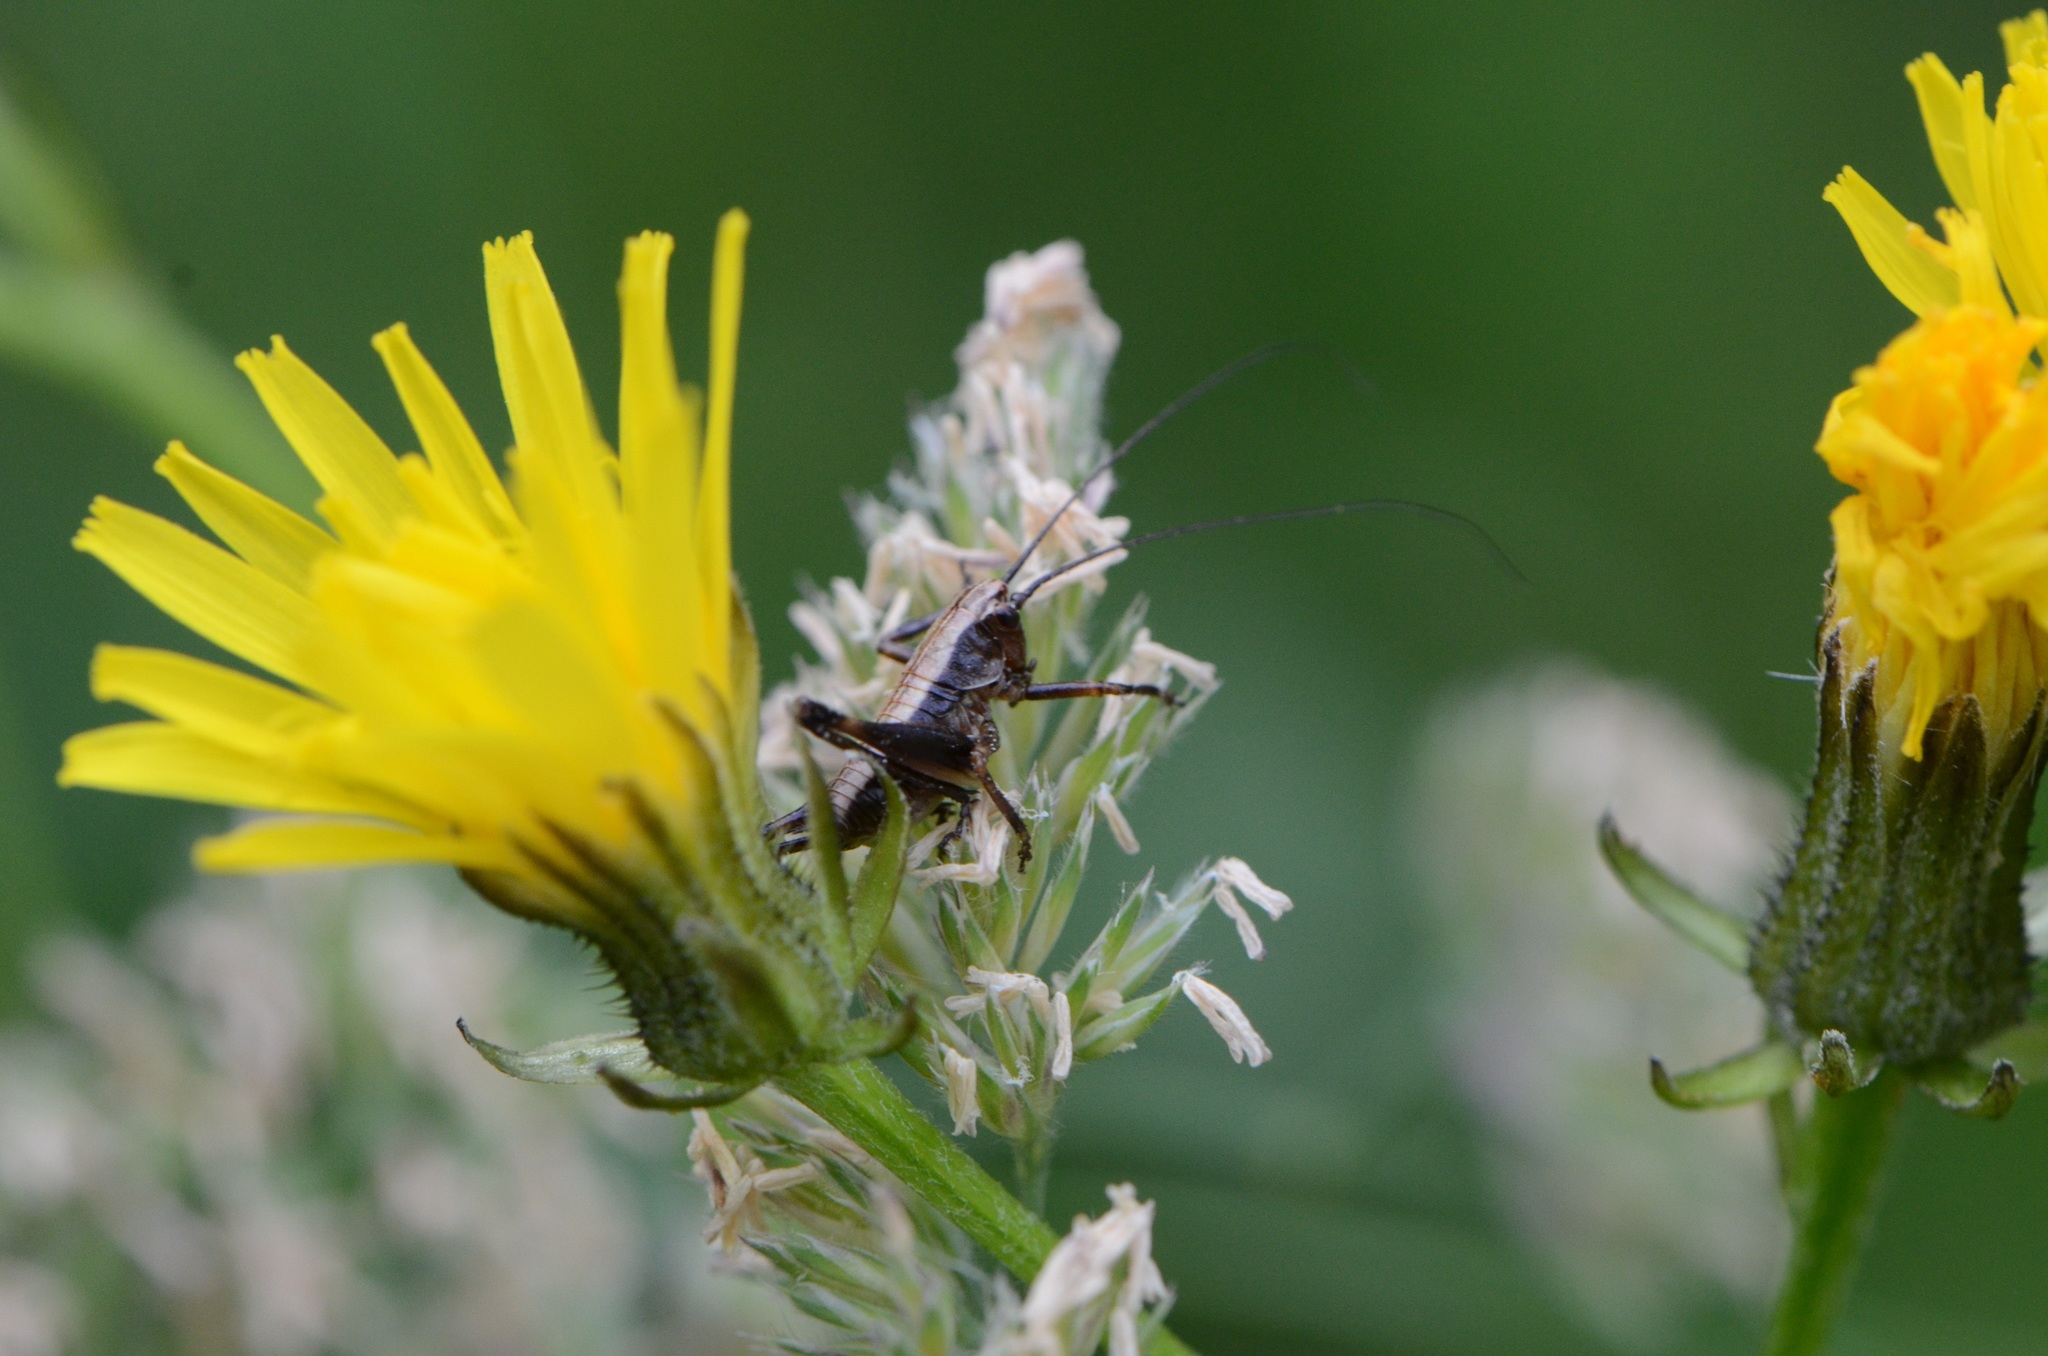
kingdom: Animalia
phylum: Arthropoda
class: Insecta
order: Orthoptera
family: Tettigoniidae
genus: Pholidoptera
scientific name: Pholidoptera griseoaptera
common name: Dark bush-cricket
